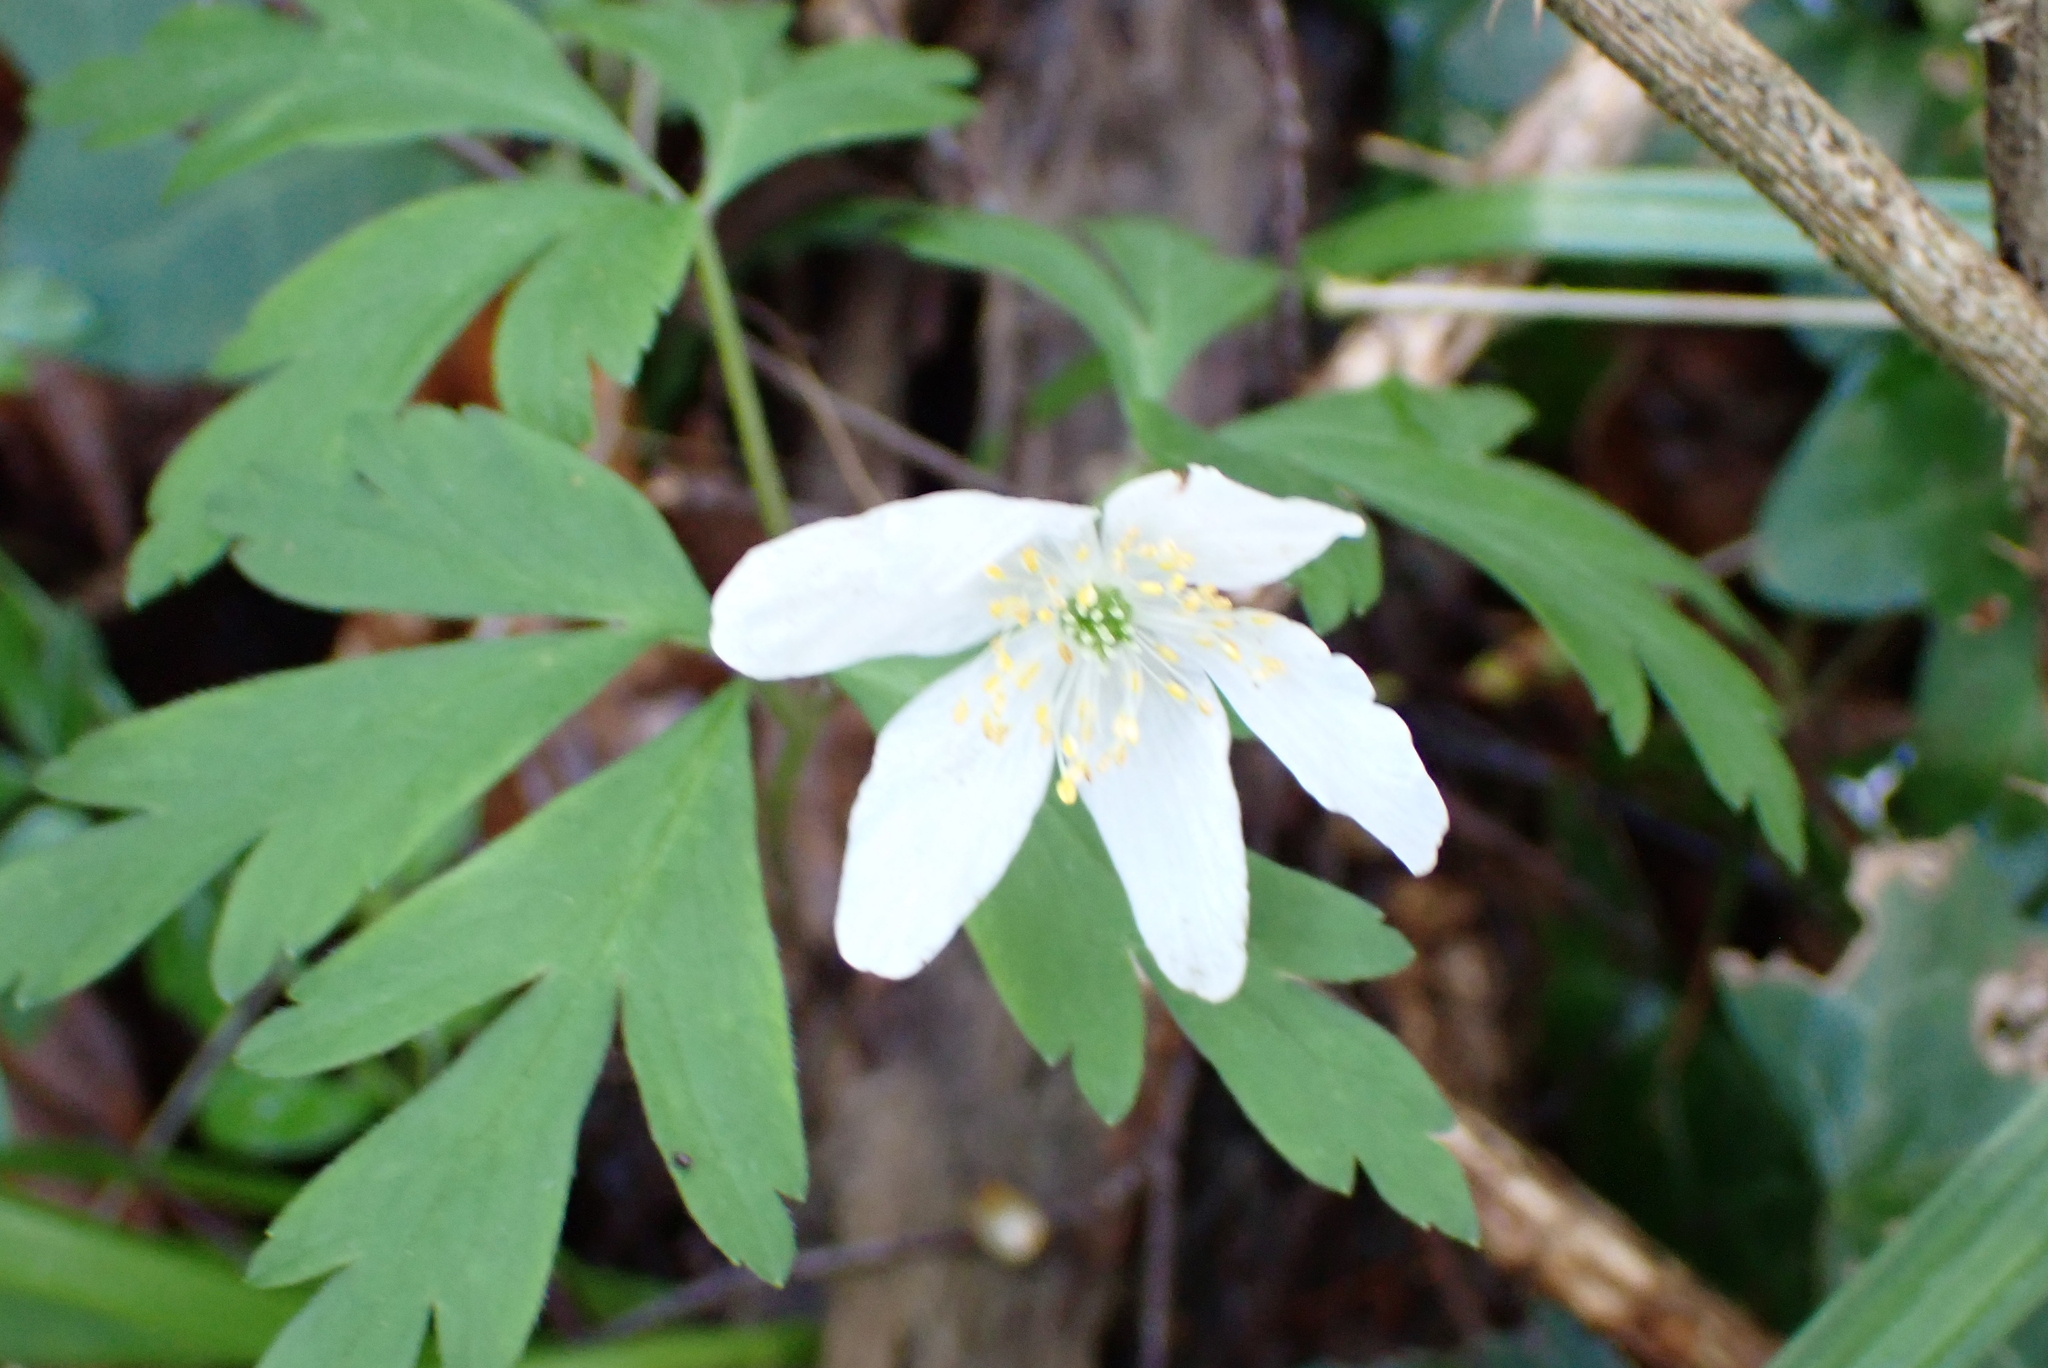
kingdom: Plantae
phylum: Tracheophyta
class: Magnoliopsida
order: Ranunculales
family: Ranunculaceae
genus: Anemone
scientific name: Anemone nemorosa
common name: Wood anemone
